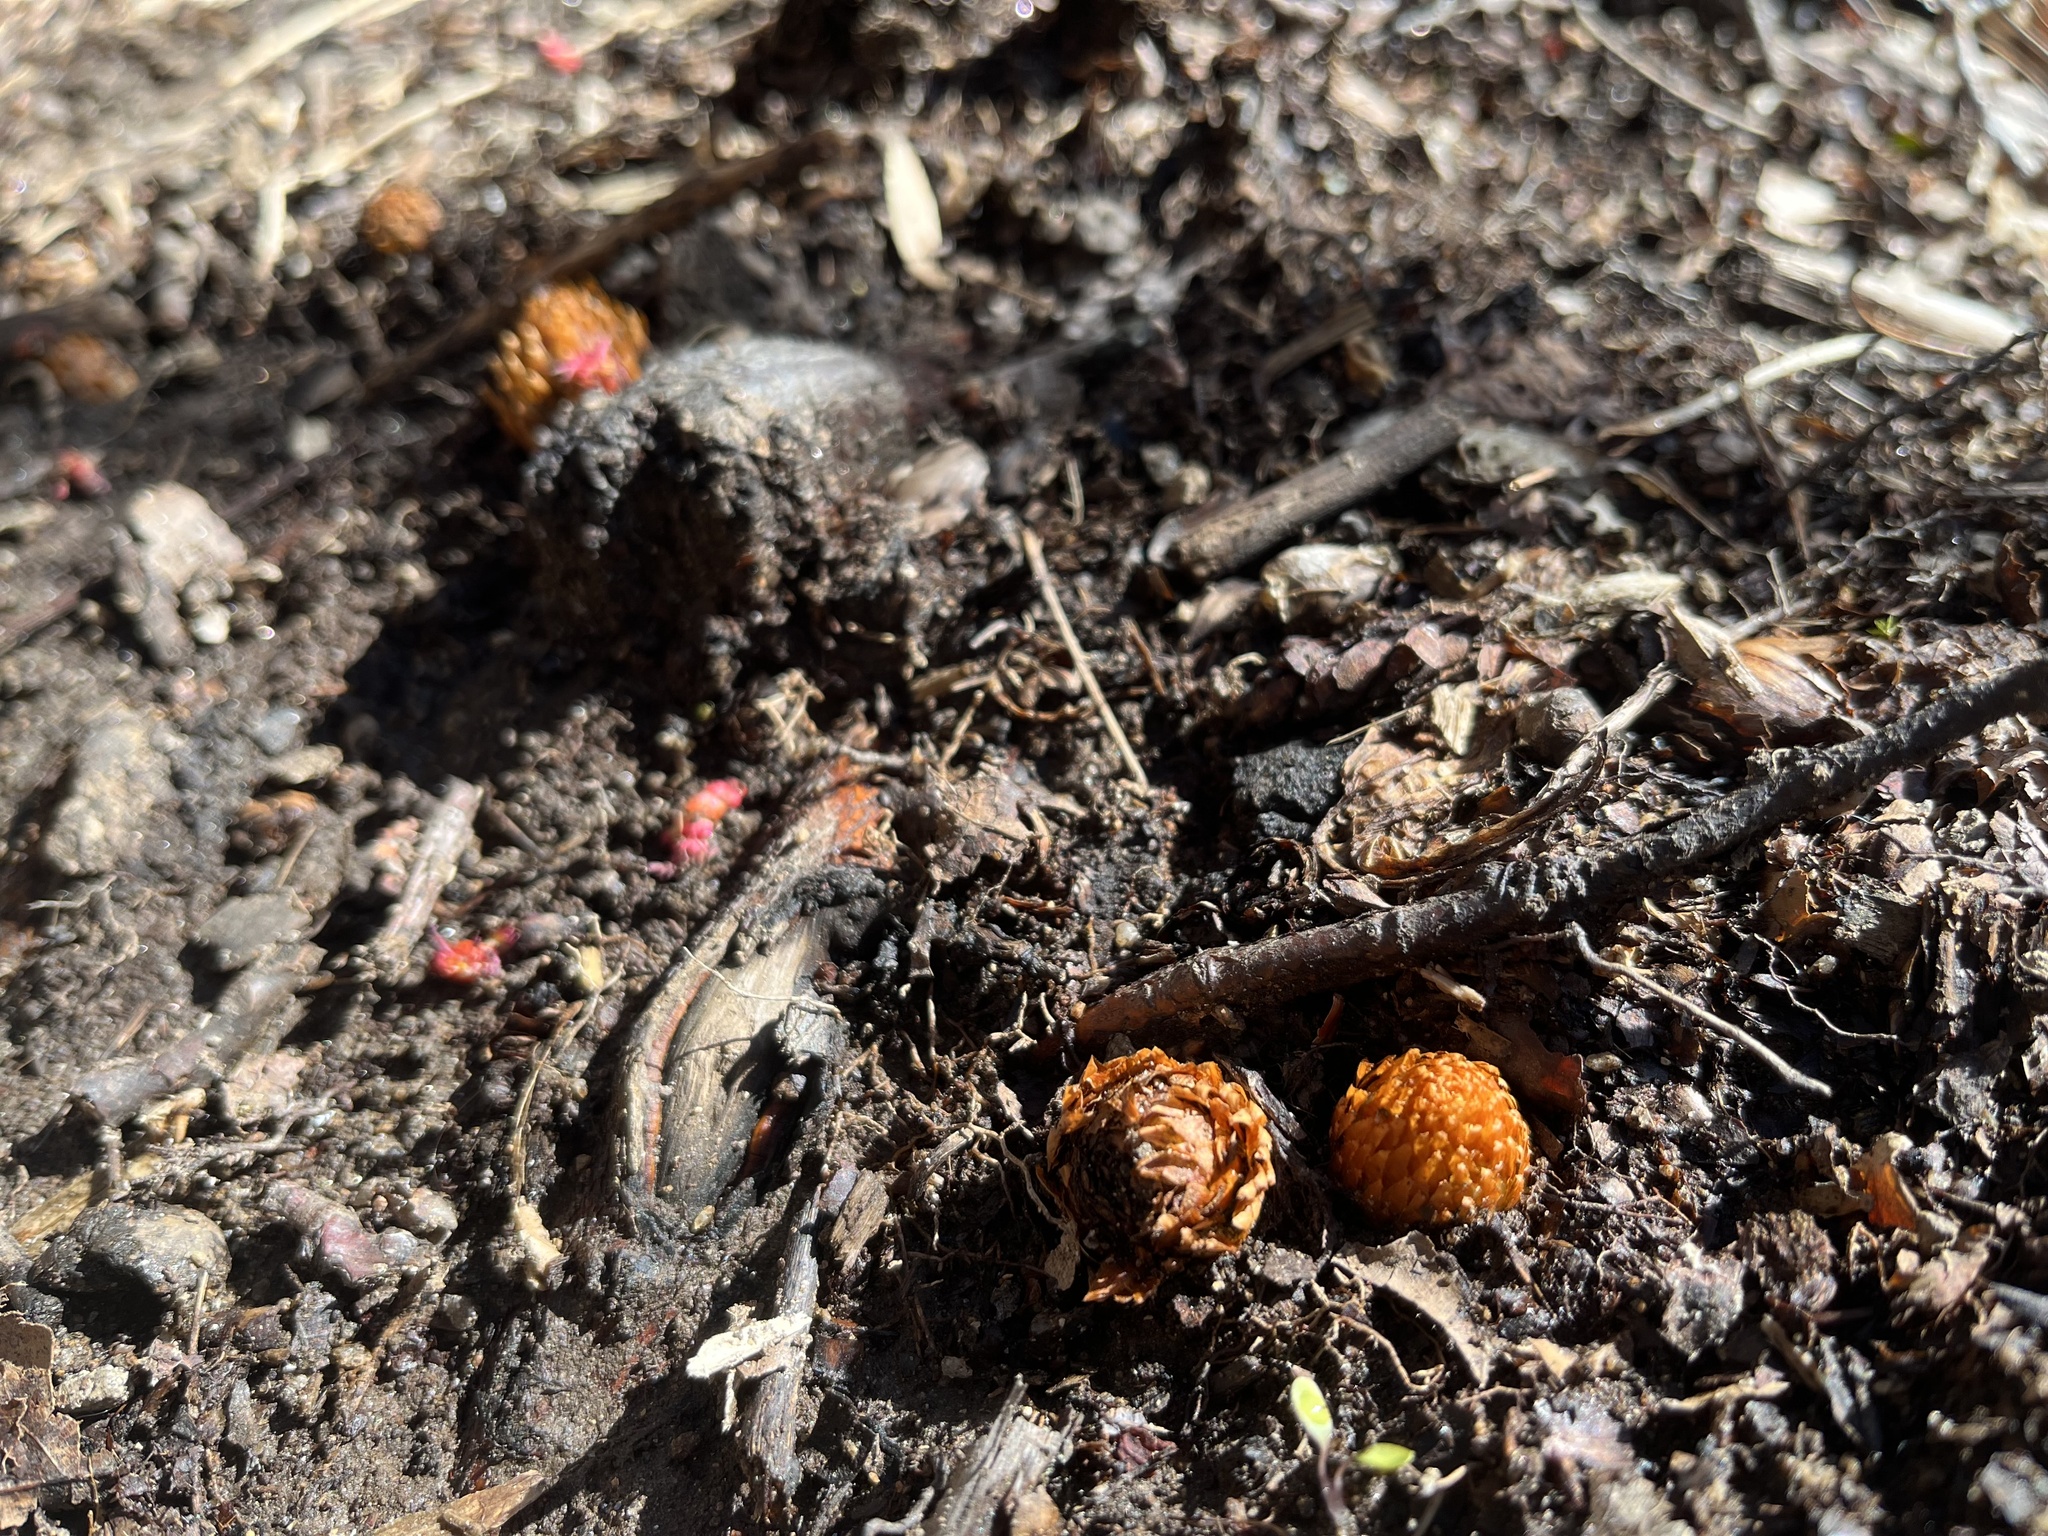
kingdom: Plantae
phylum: Tracheophyta
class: Magnoliopsida
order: Lamiales
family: Orobanchaceae
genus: Conopholis
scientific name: Conopholis americana
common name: American cancer-root
